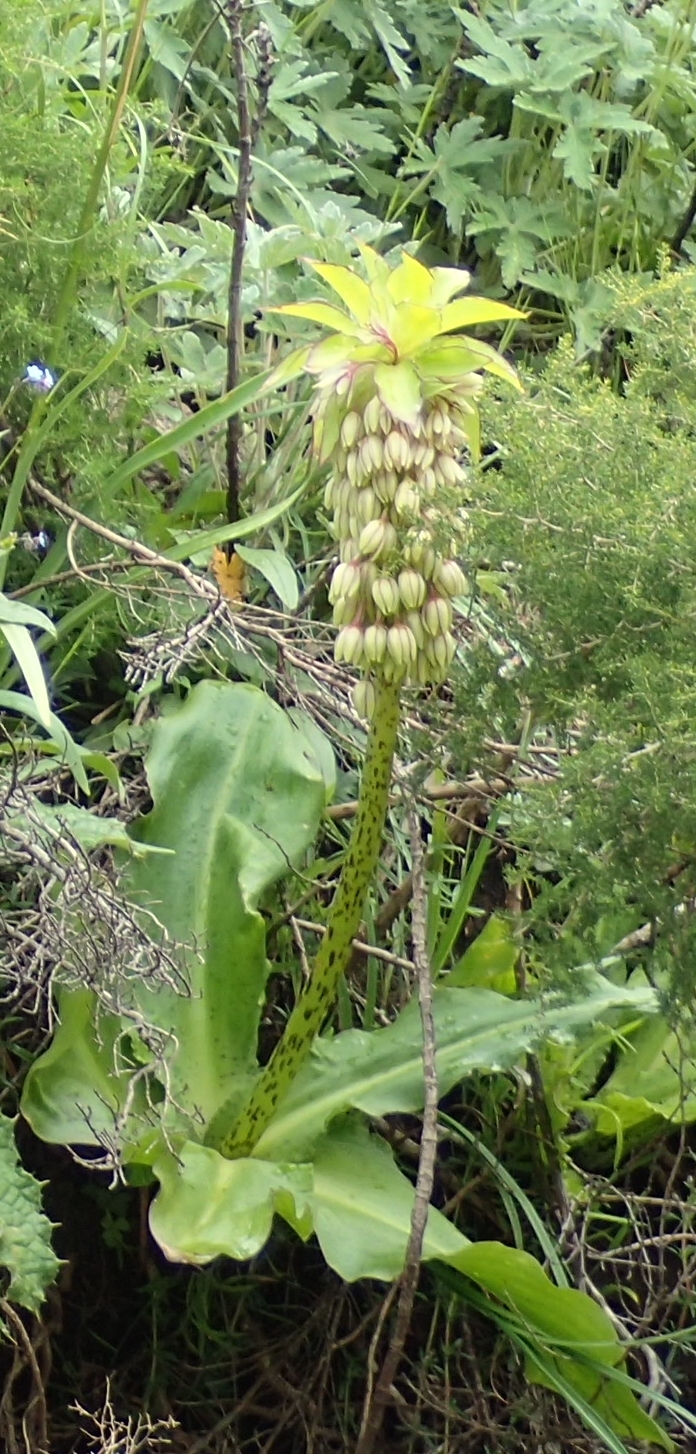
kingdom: Plantae
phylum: Tracheophyta
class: Liliopsida
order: Asparagales
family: Asparagaceae
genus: Eucomis
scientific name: Eucomis bicolor
